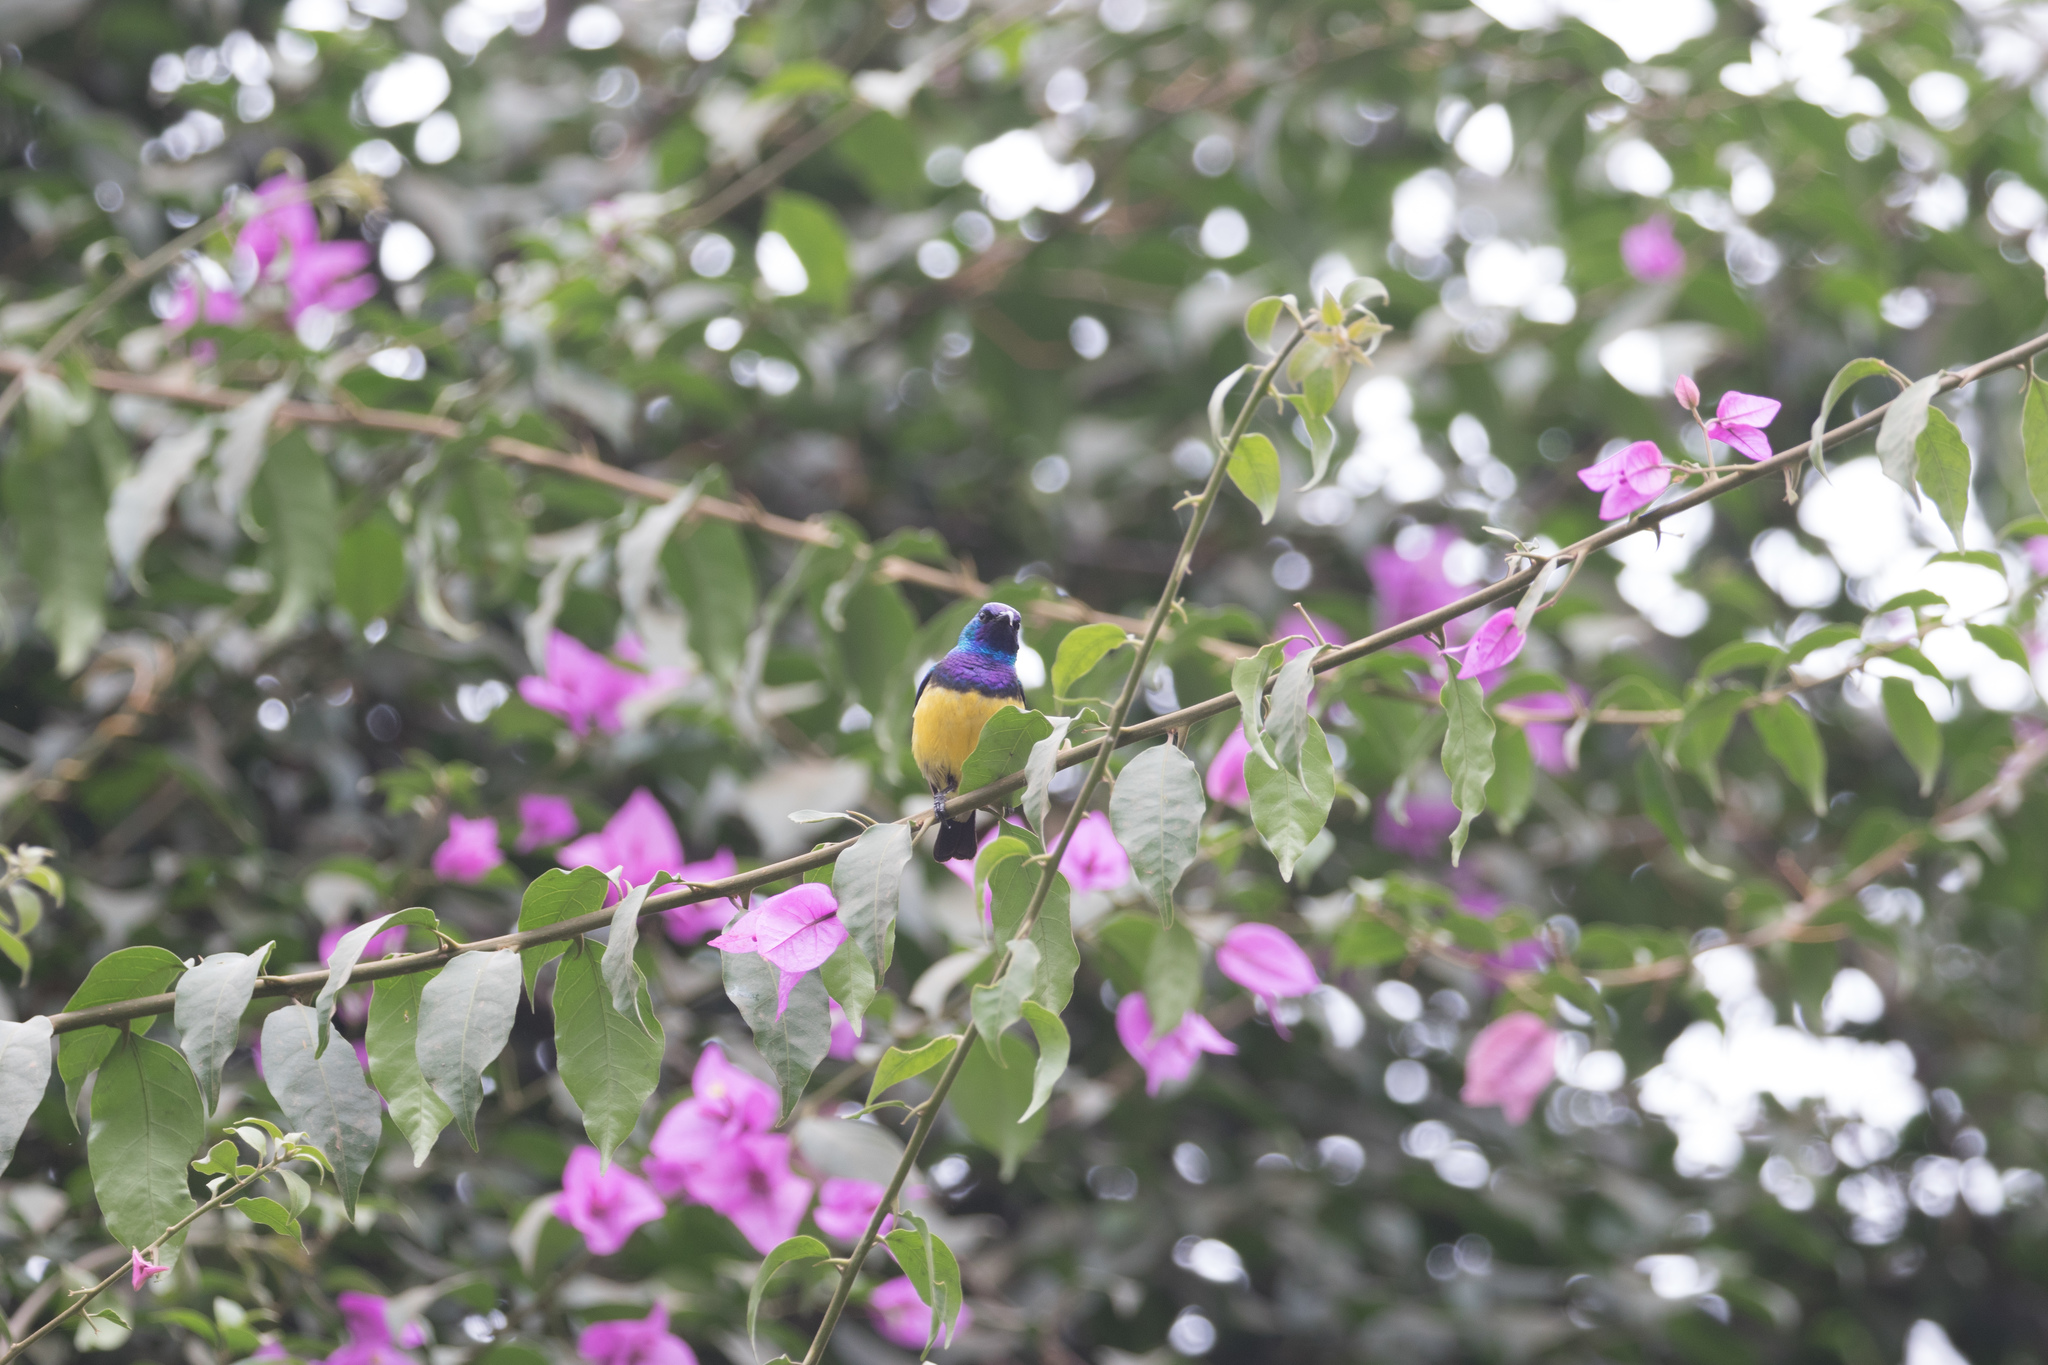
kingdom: Animalia
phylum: Chordata
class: Aves
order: Passeriformes
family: Nectariniidae
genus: Cinnyris
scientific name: Cinnyris venustus
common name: Variable sunbird
